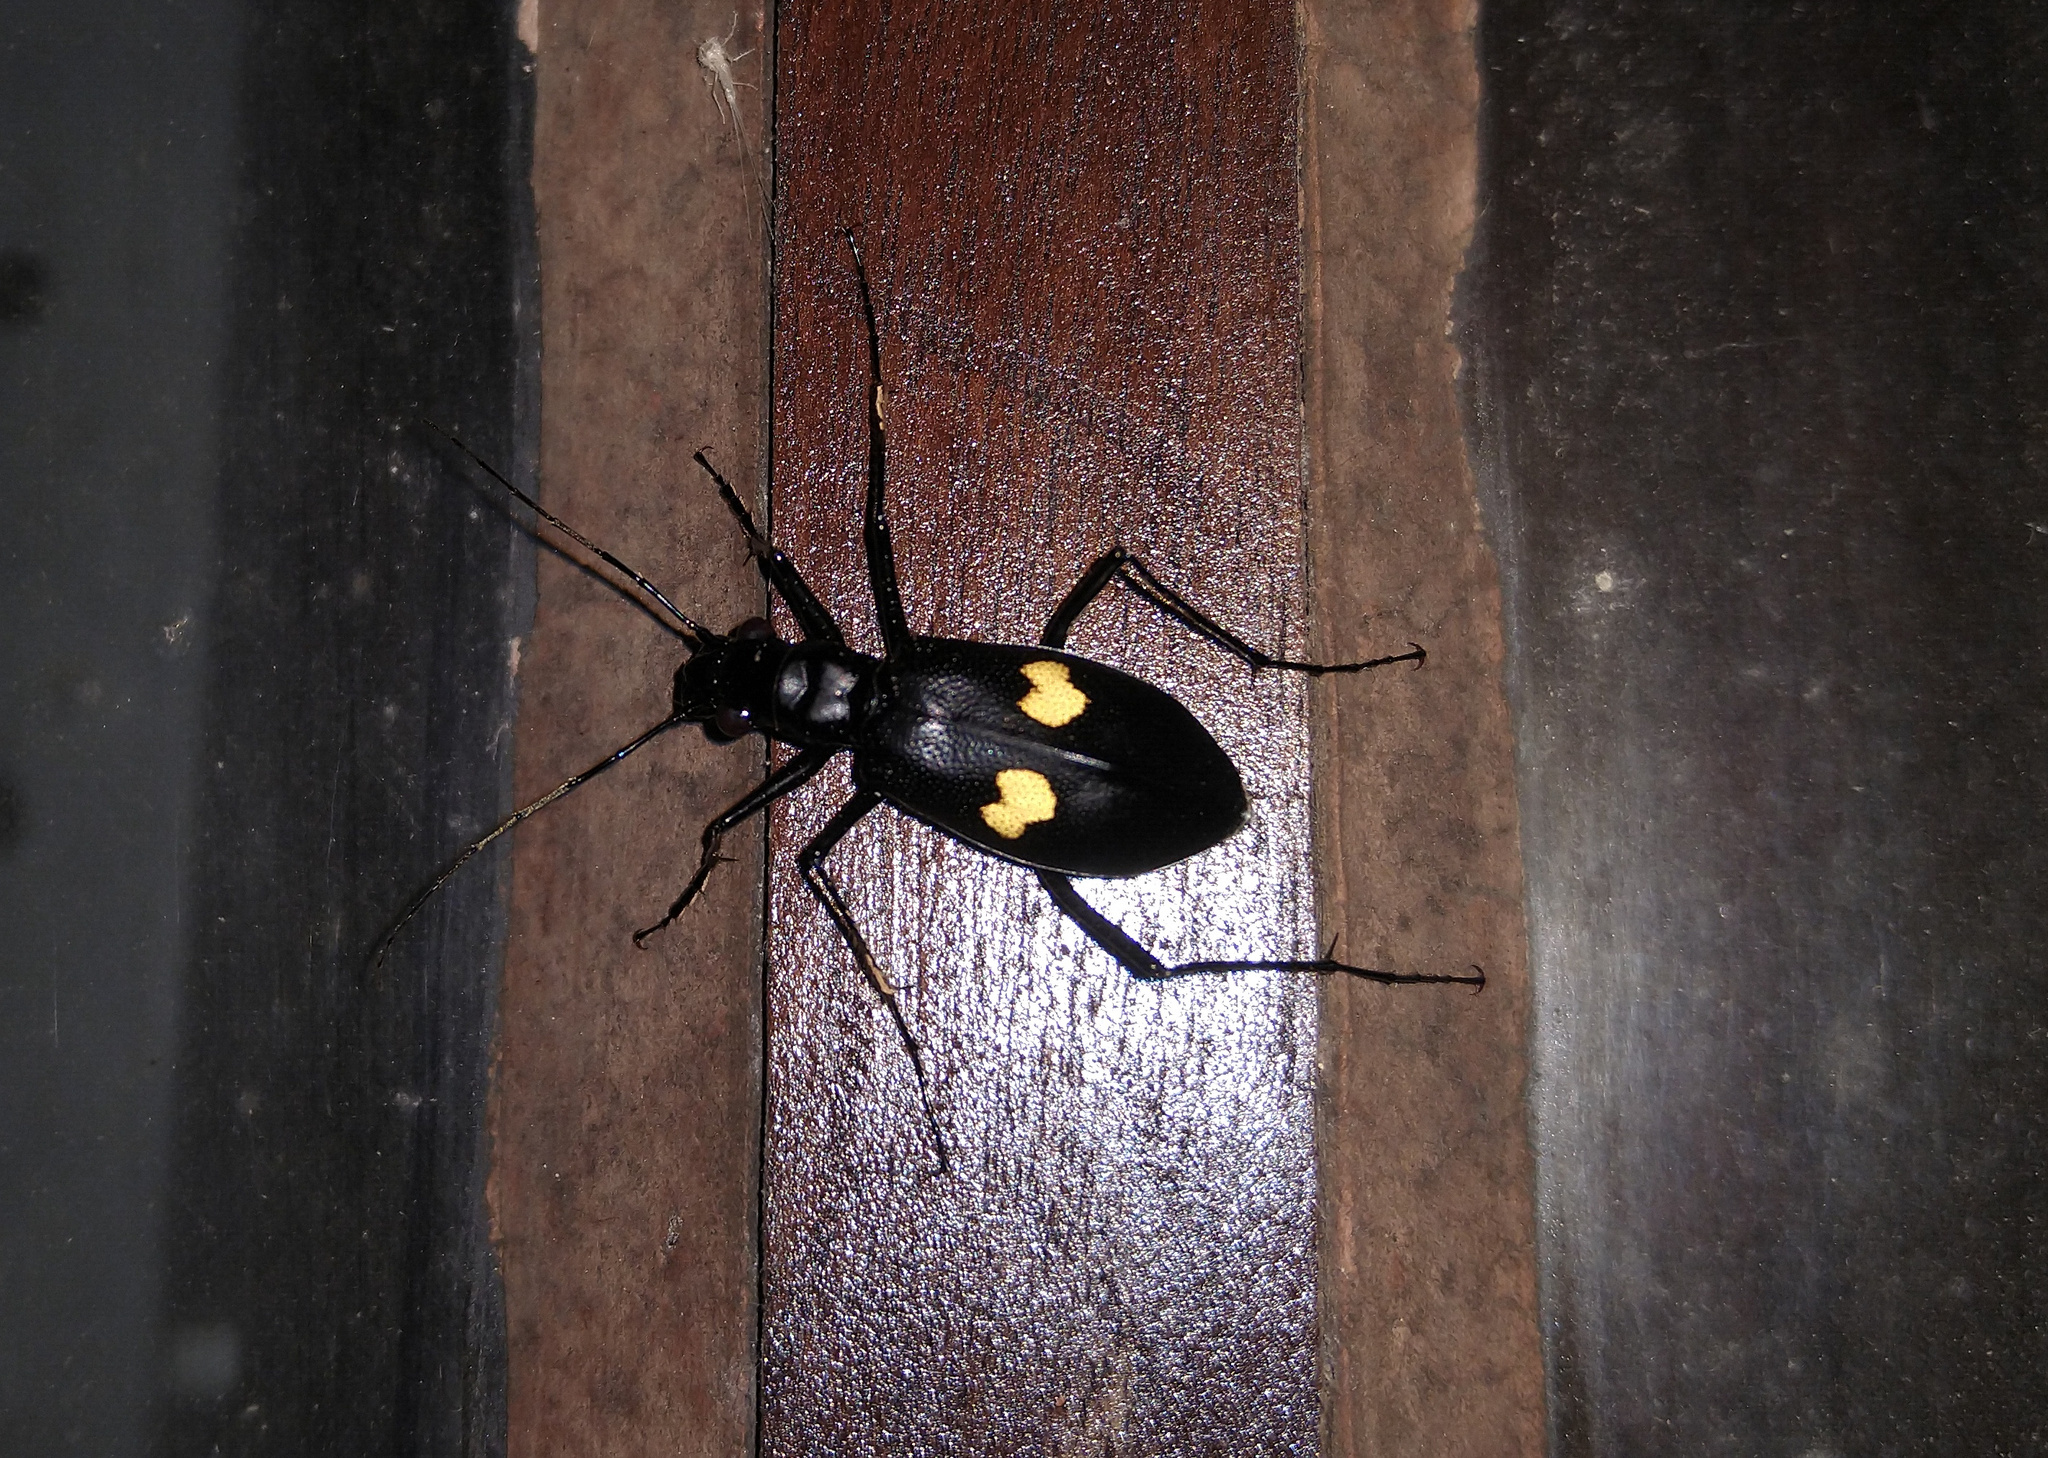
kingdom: Animalia
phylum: Arthropoda
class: Insecta
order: Coleoptera
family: Carabidae
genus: Oxycheila
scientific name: Oxycheila tristis
